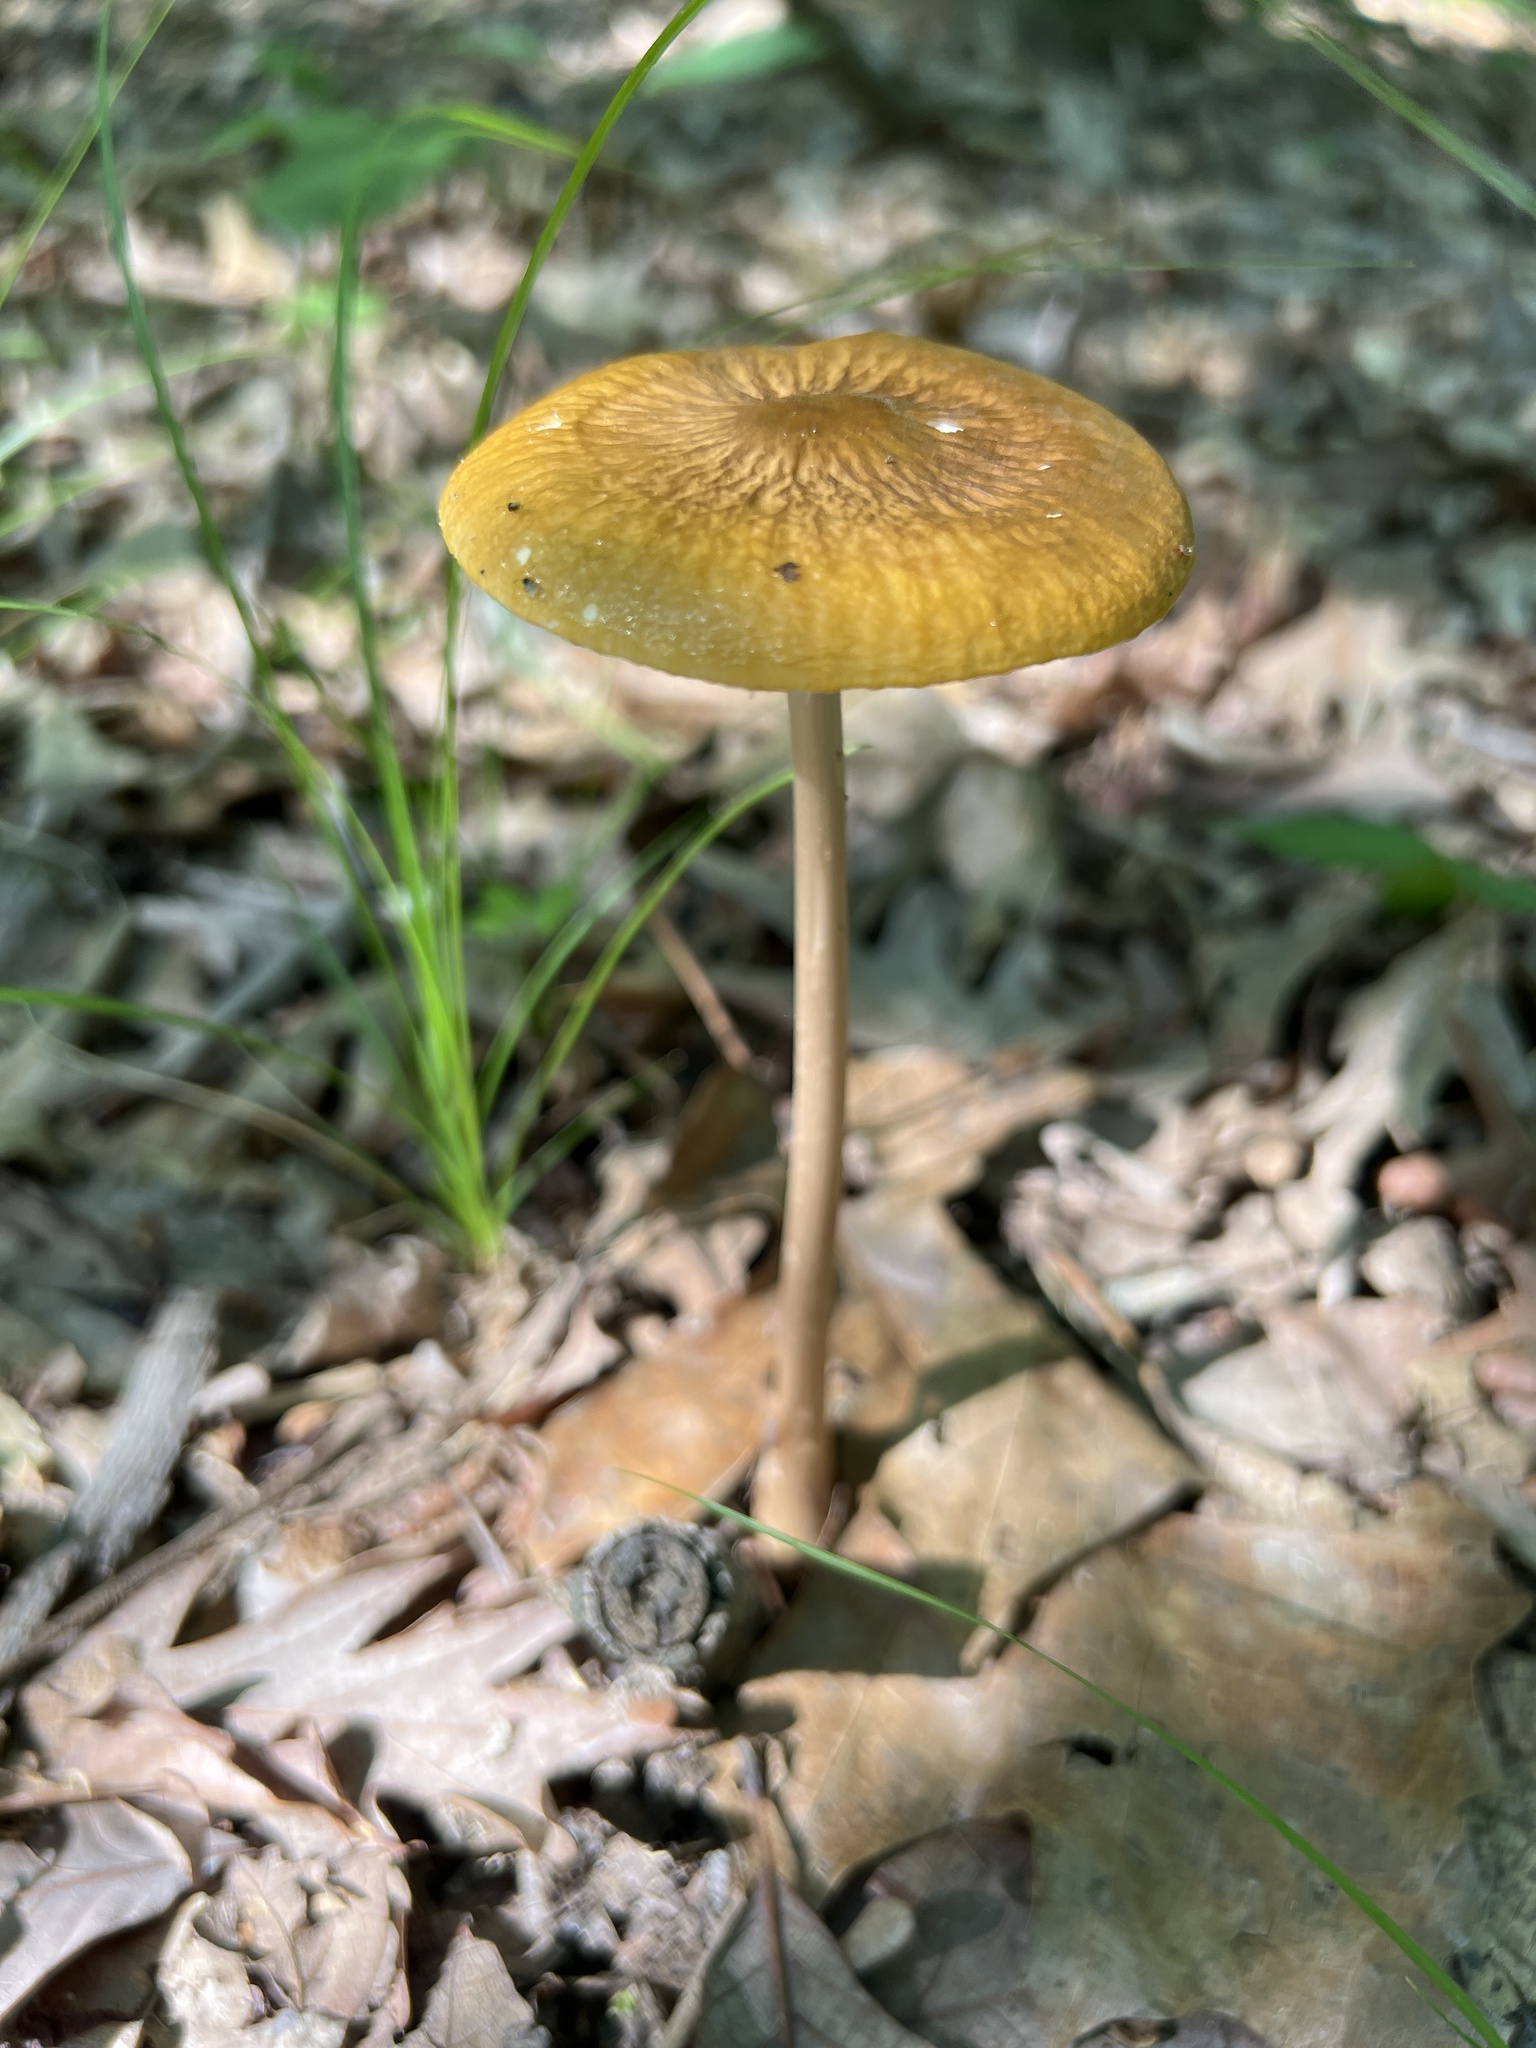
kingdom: Fungi
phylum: Basidiomycota
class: Agaricomycetes
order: Agaricales
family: Physalacriaceae
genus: Hymenopellis
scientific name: Hymenopellis furfuracea
